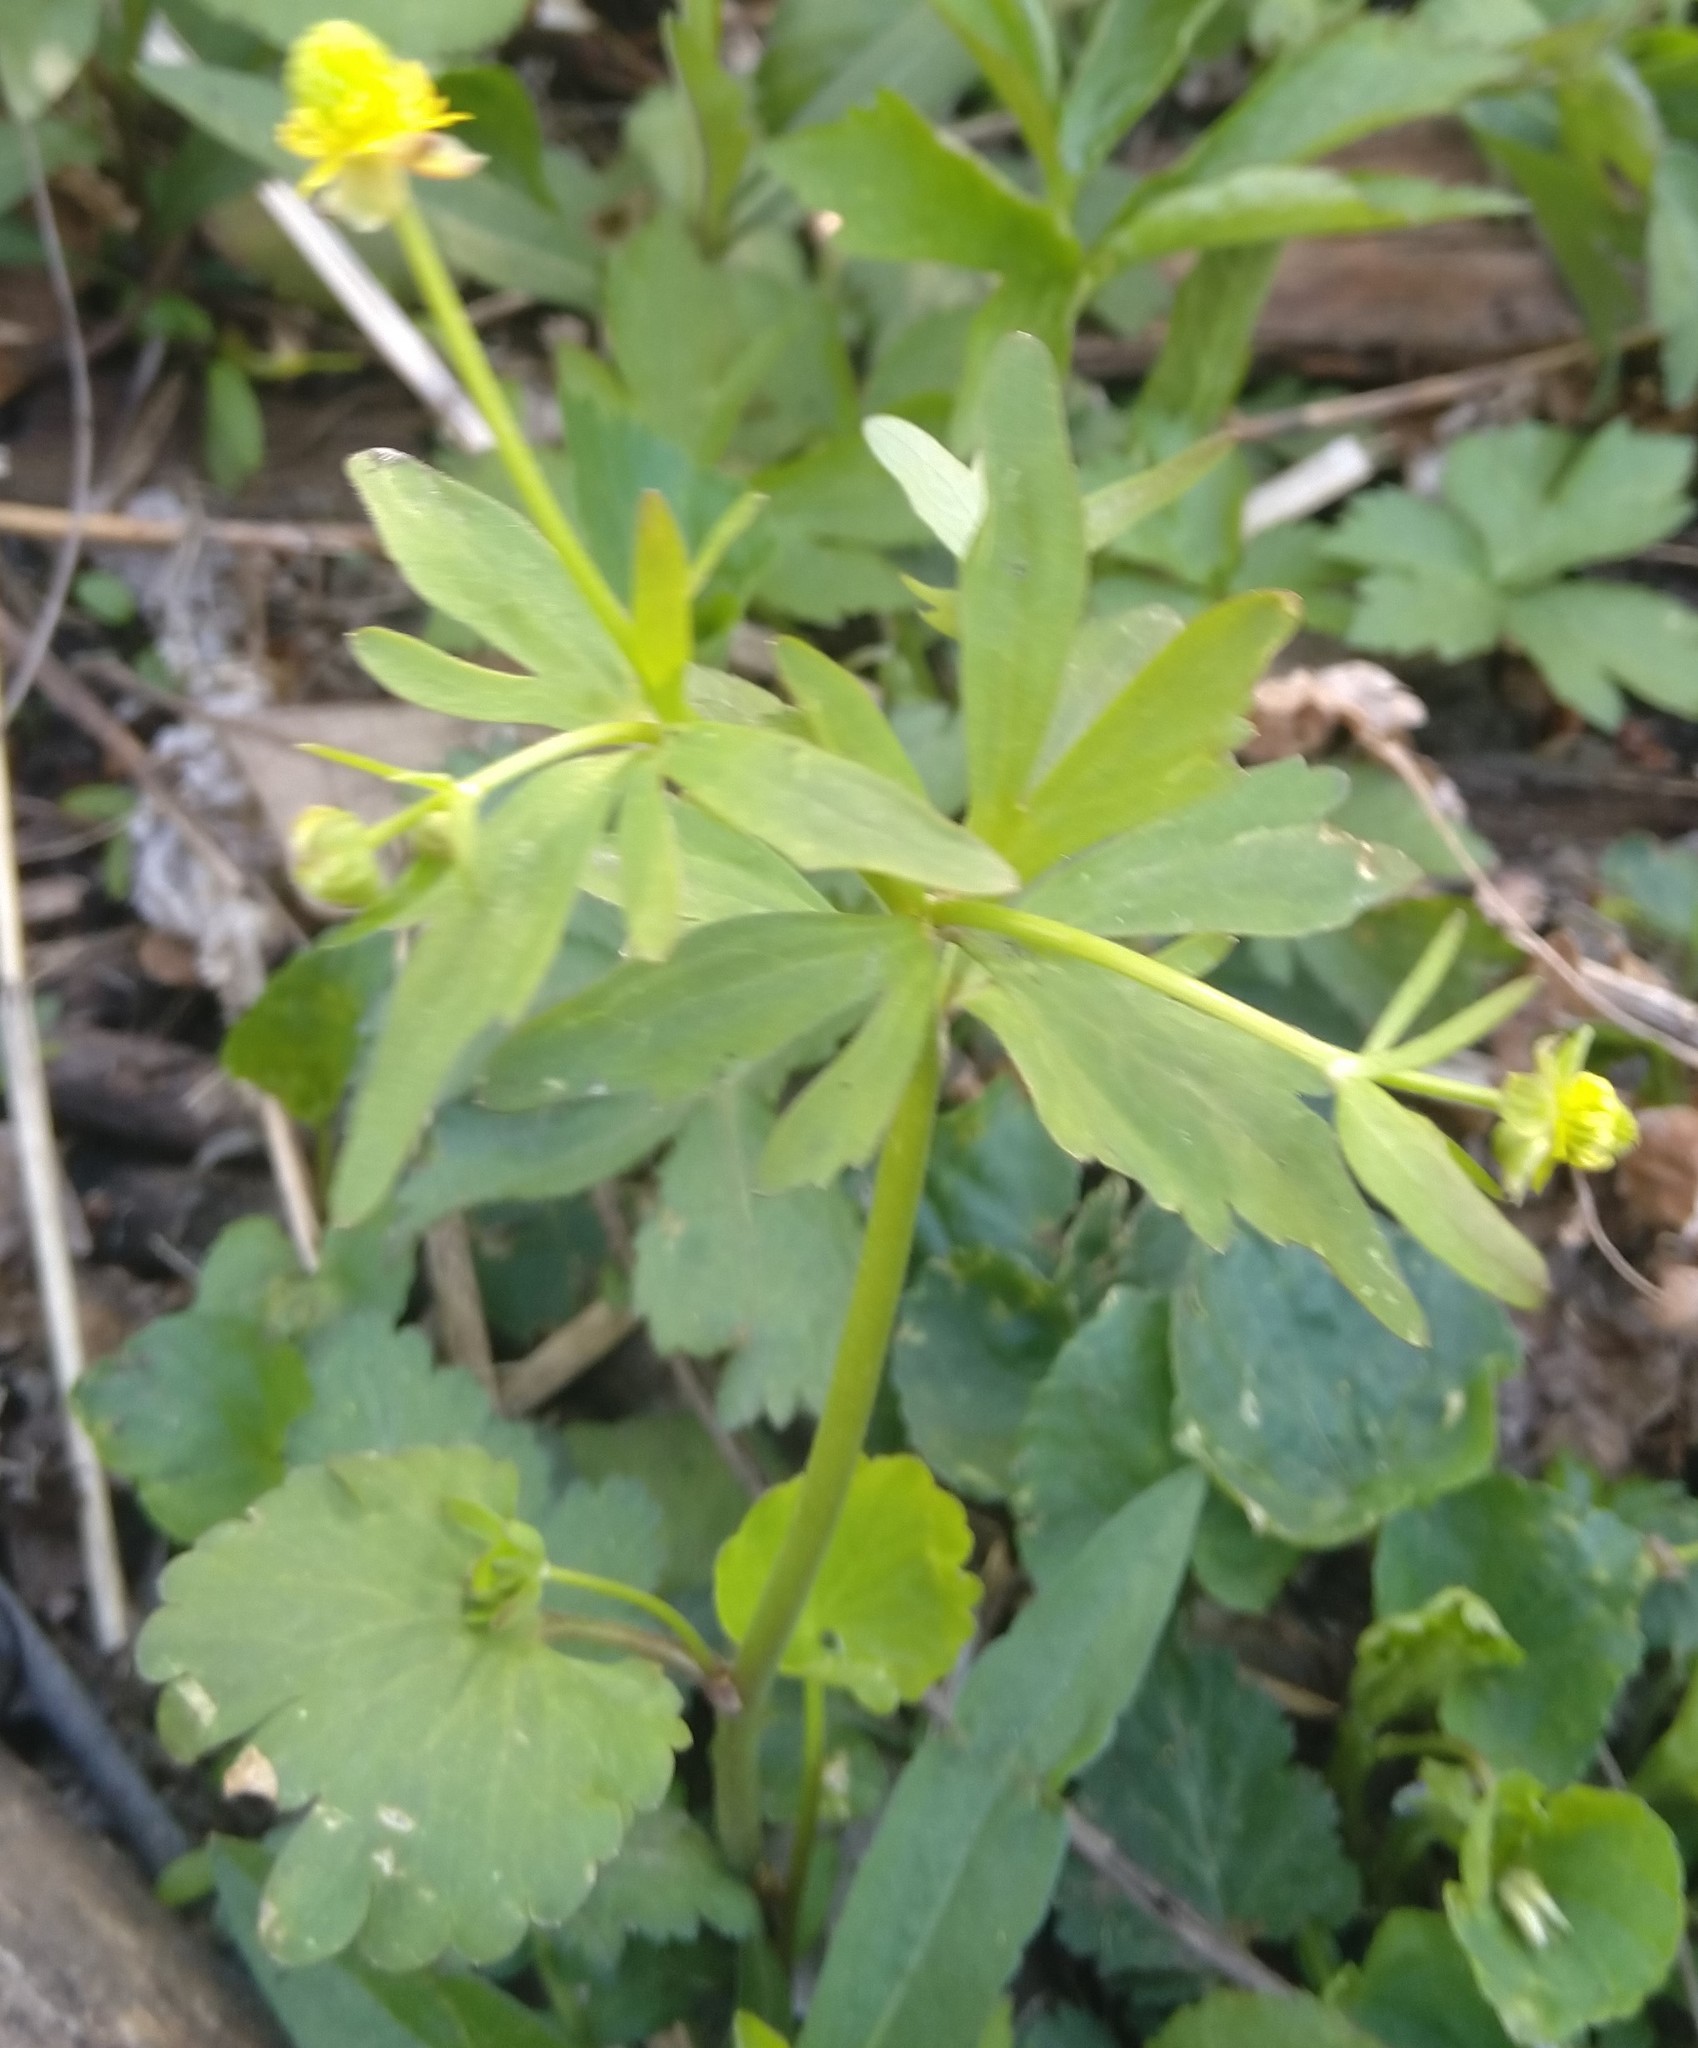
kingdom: Plantae
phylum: Tracheophyta
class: Magnoliopsida
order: Ranunculales
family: Ranunculaceae
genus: Ranunculus
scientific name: Ranunculus abortivus
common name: Early wood buttercup
